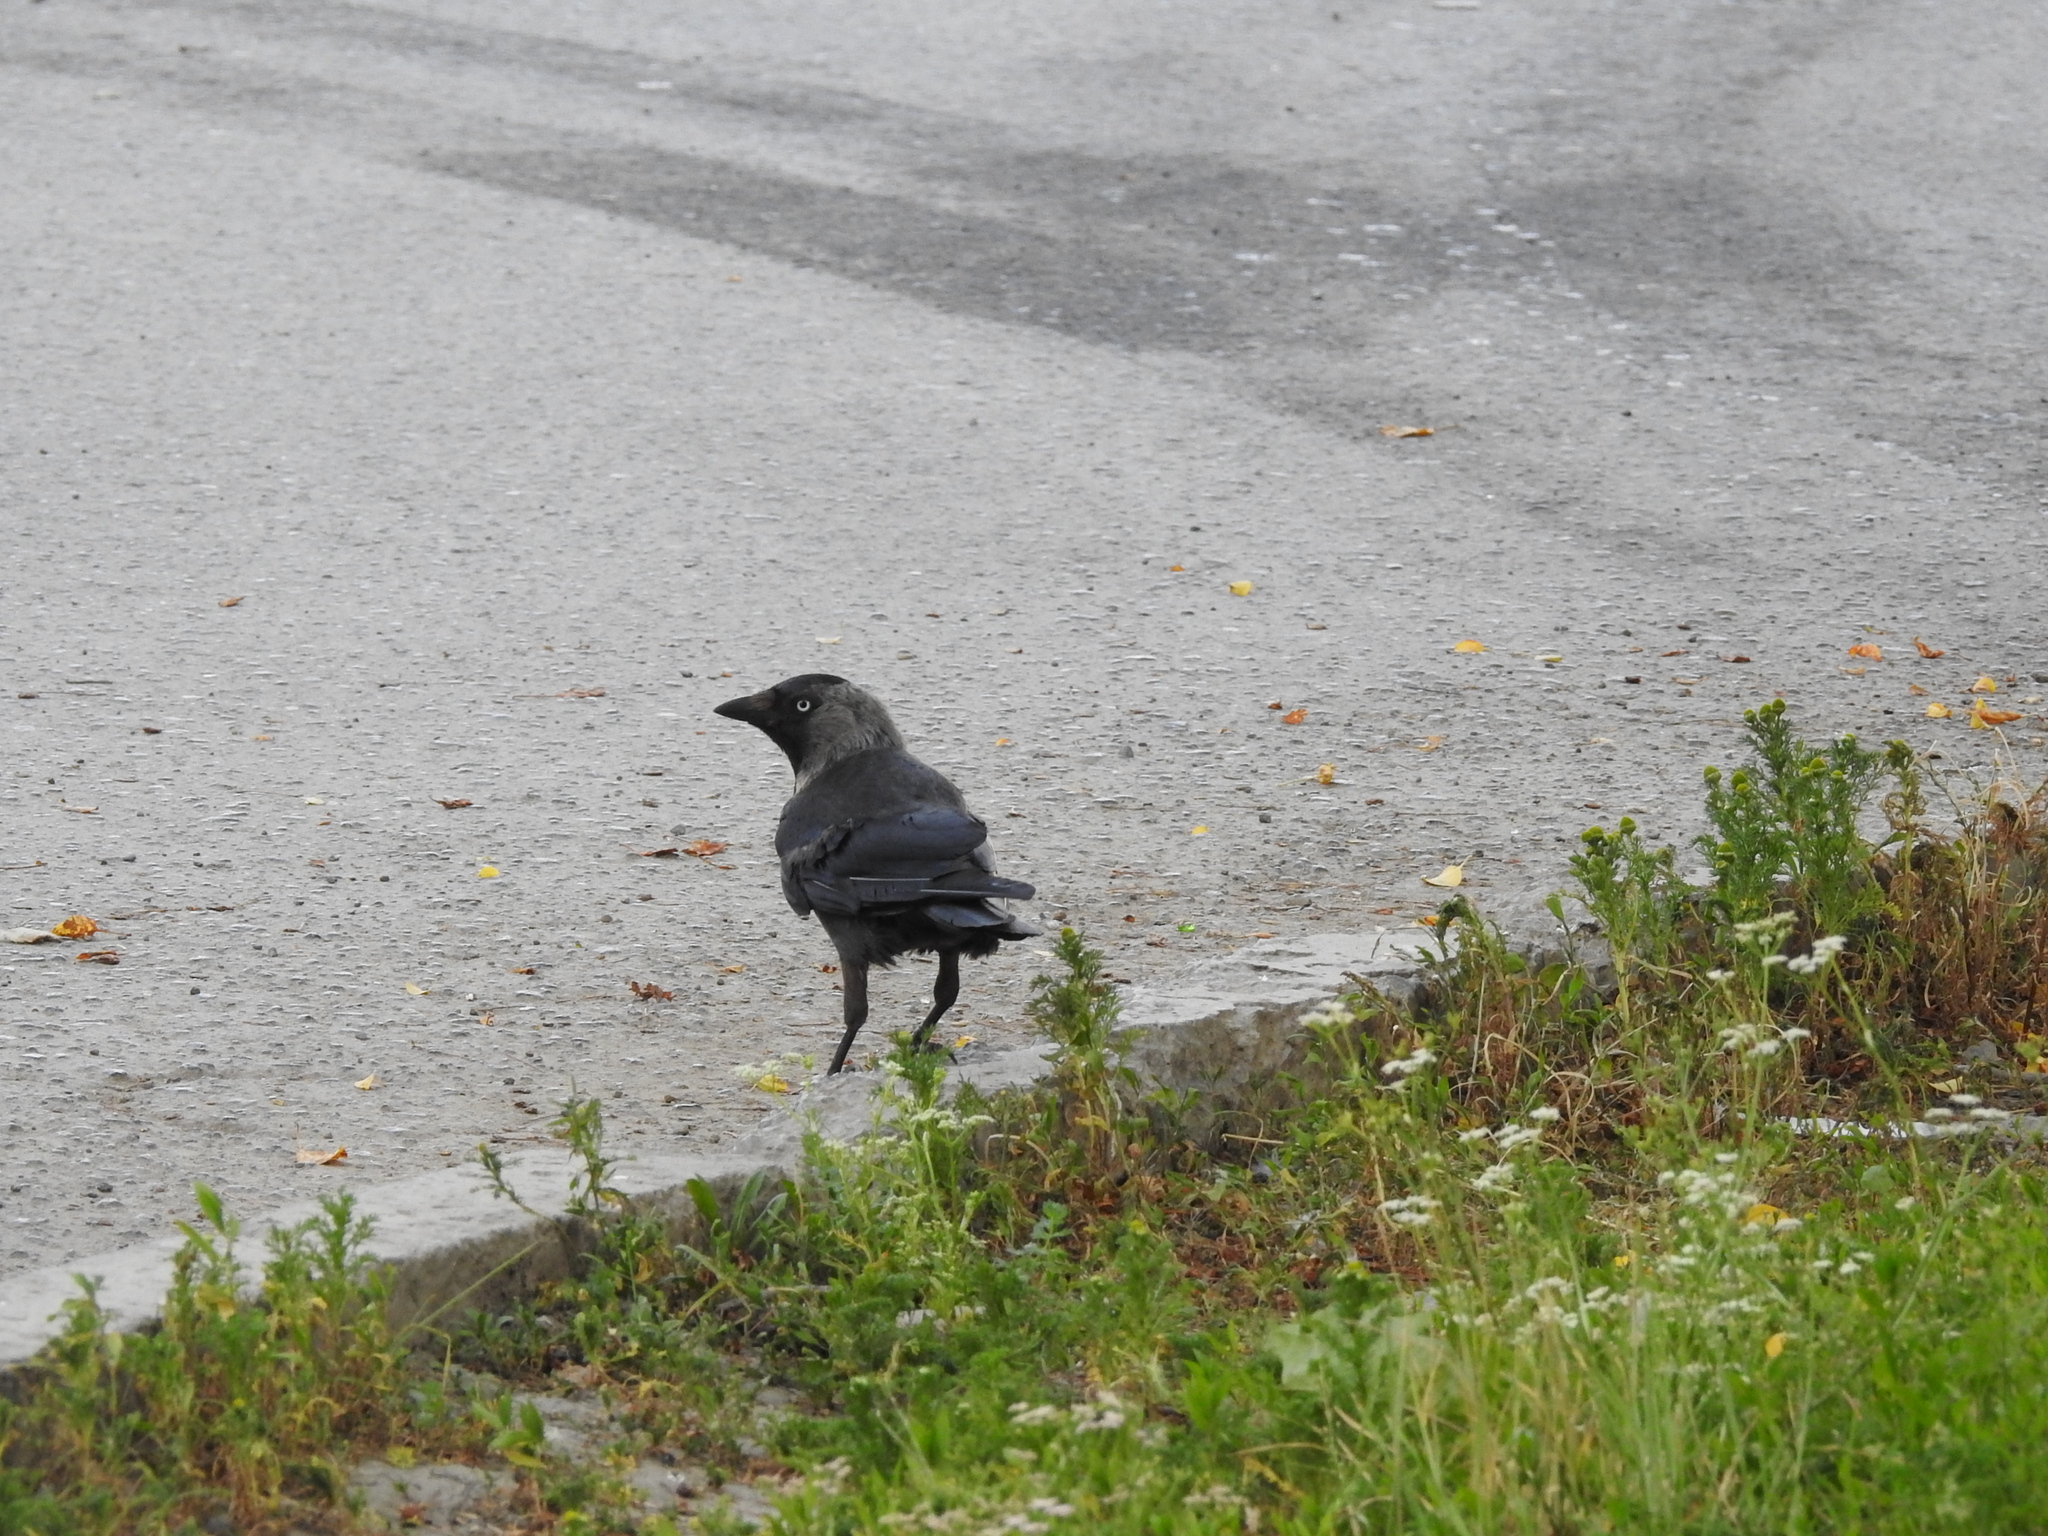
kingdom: Animalia
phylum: Chordata
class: Aves
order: Passeriformes
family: Corvidae
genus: Coloeus
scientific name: Coloeus monedula
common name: Western jackdaw
